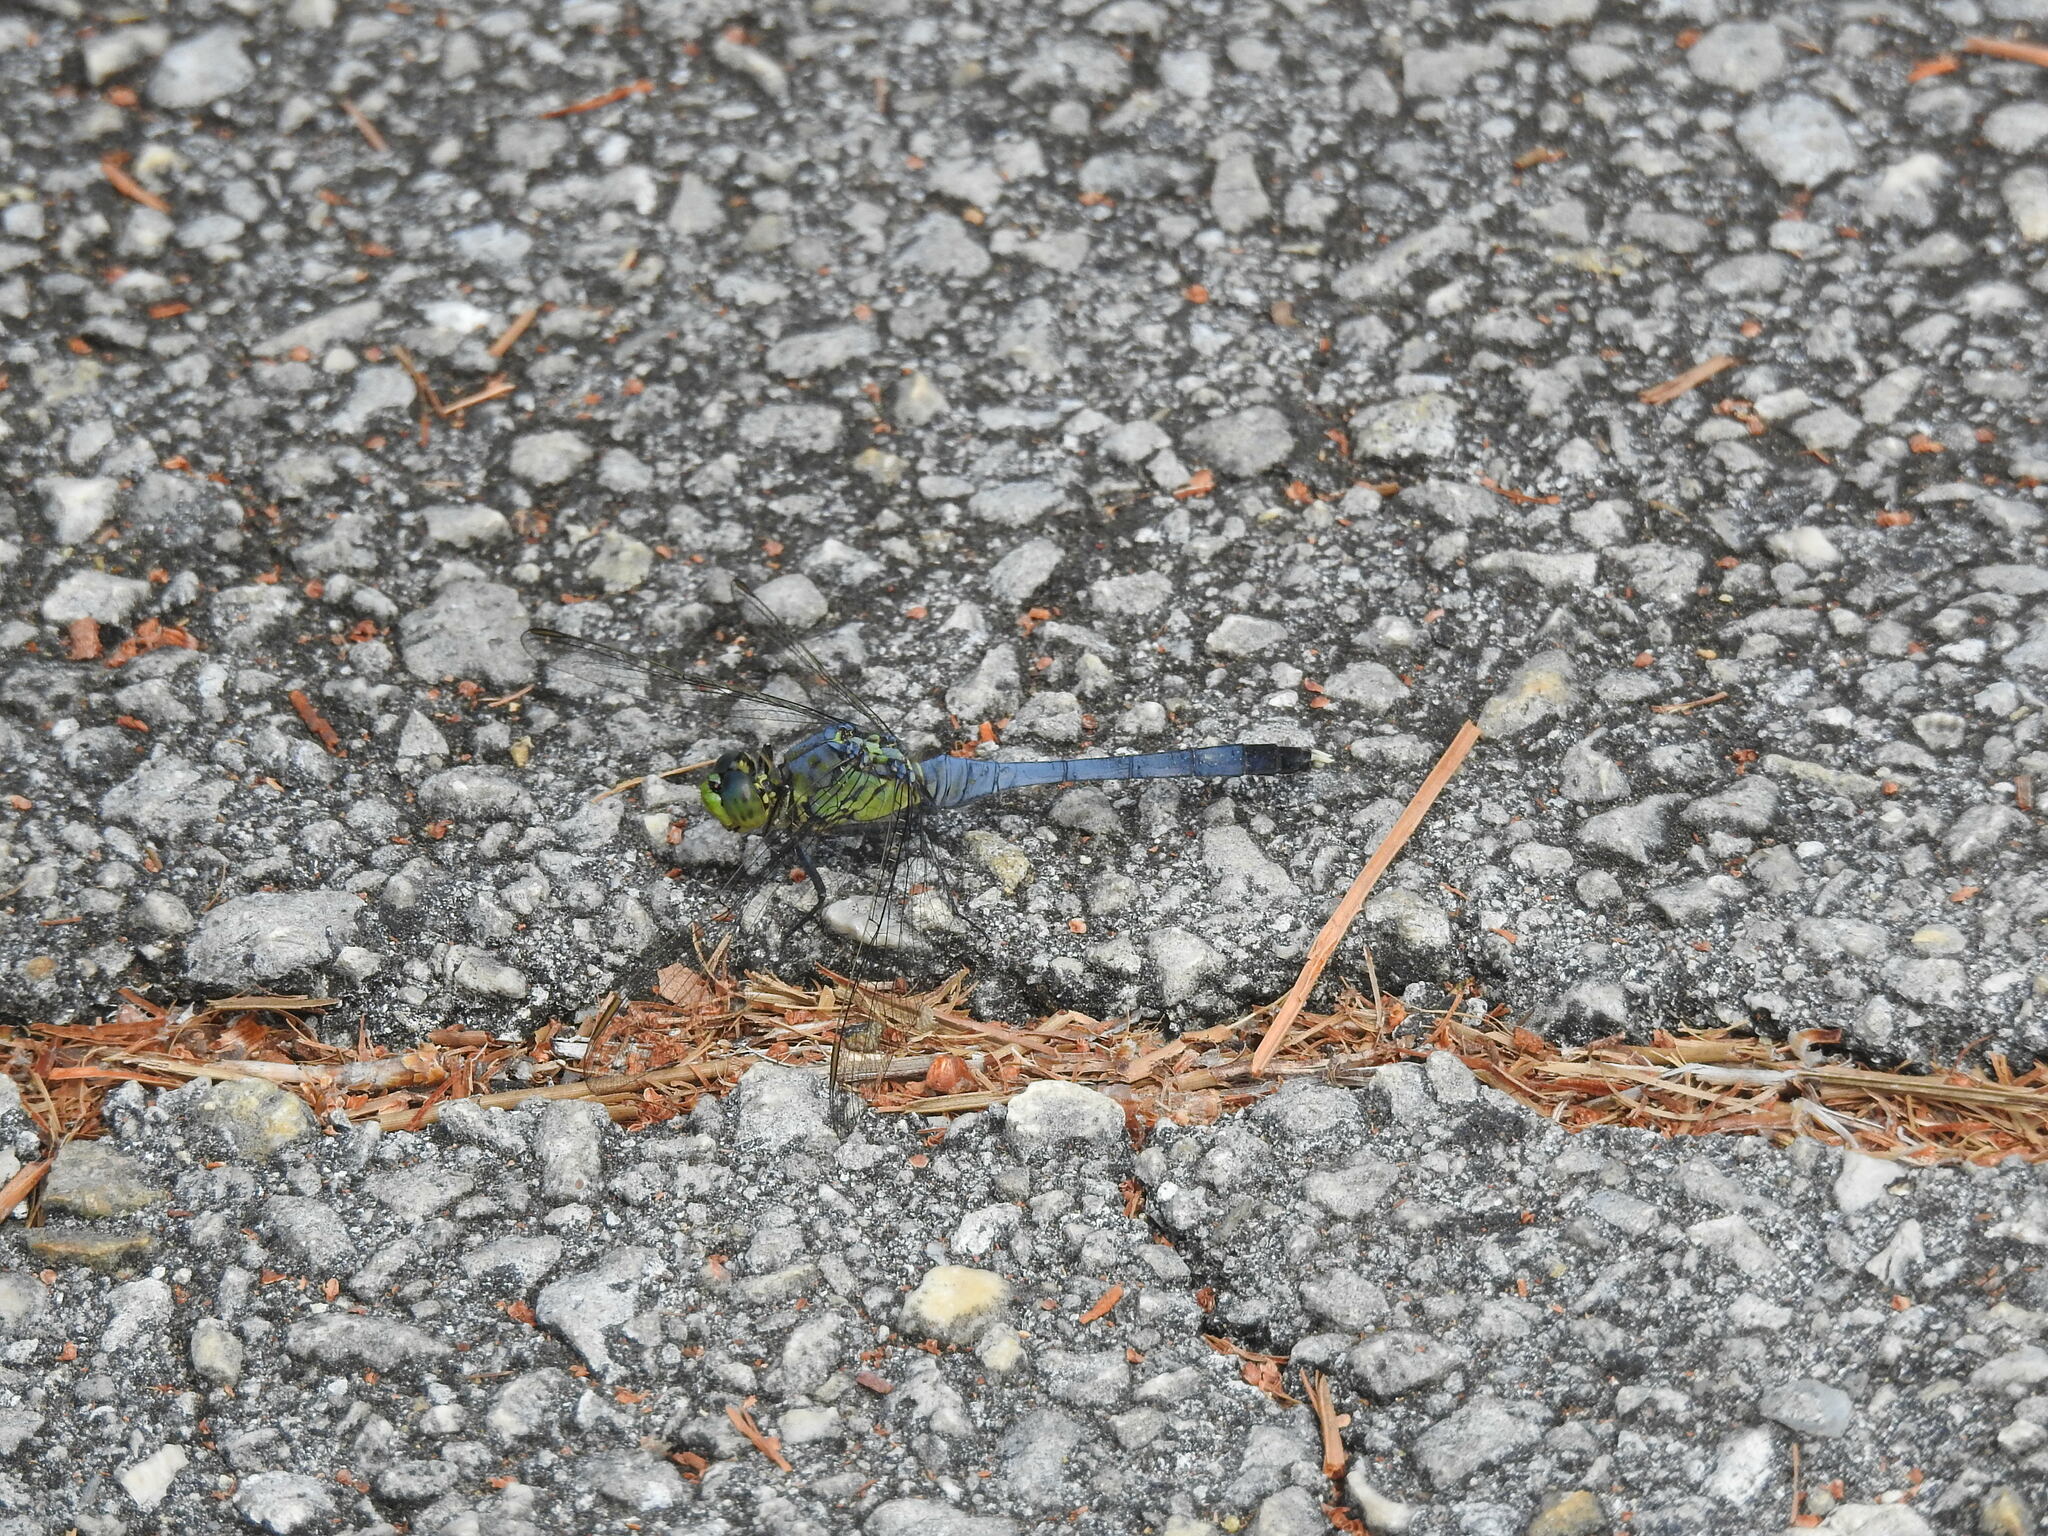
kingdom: Animalia
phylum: Arthropoda
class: Insecta
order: Odonata
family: Libellulidae
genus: Erythemis
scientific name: Erythemis simplicicollis
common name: Eastern pondhawk
